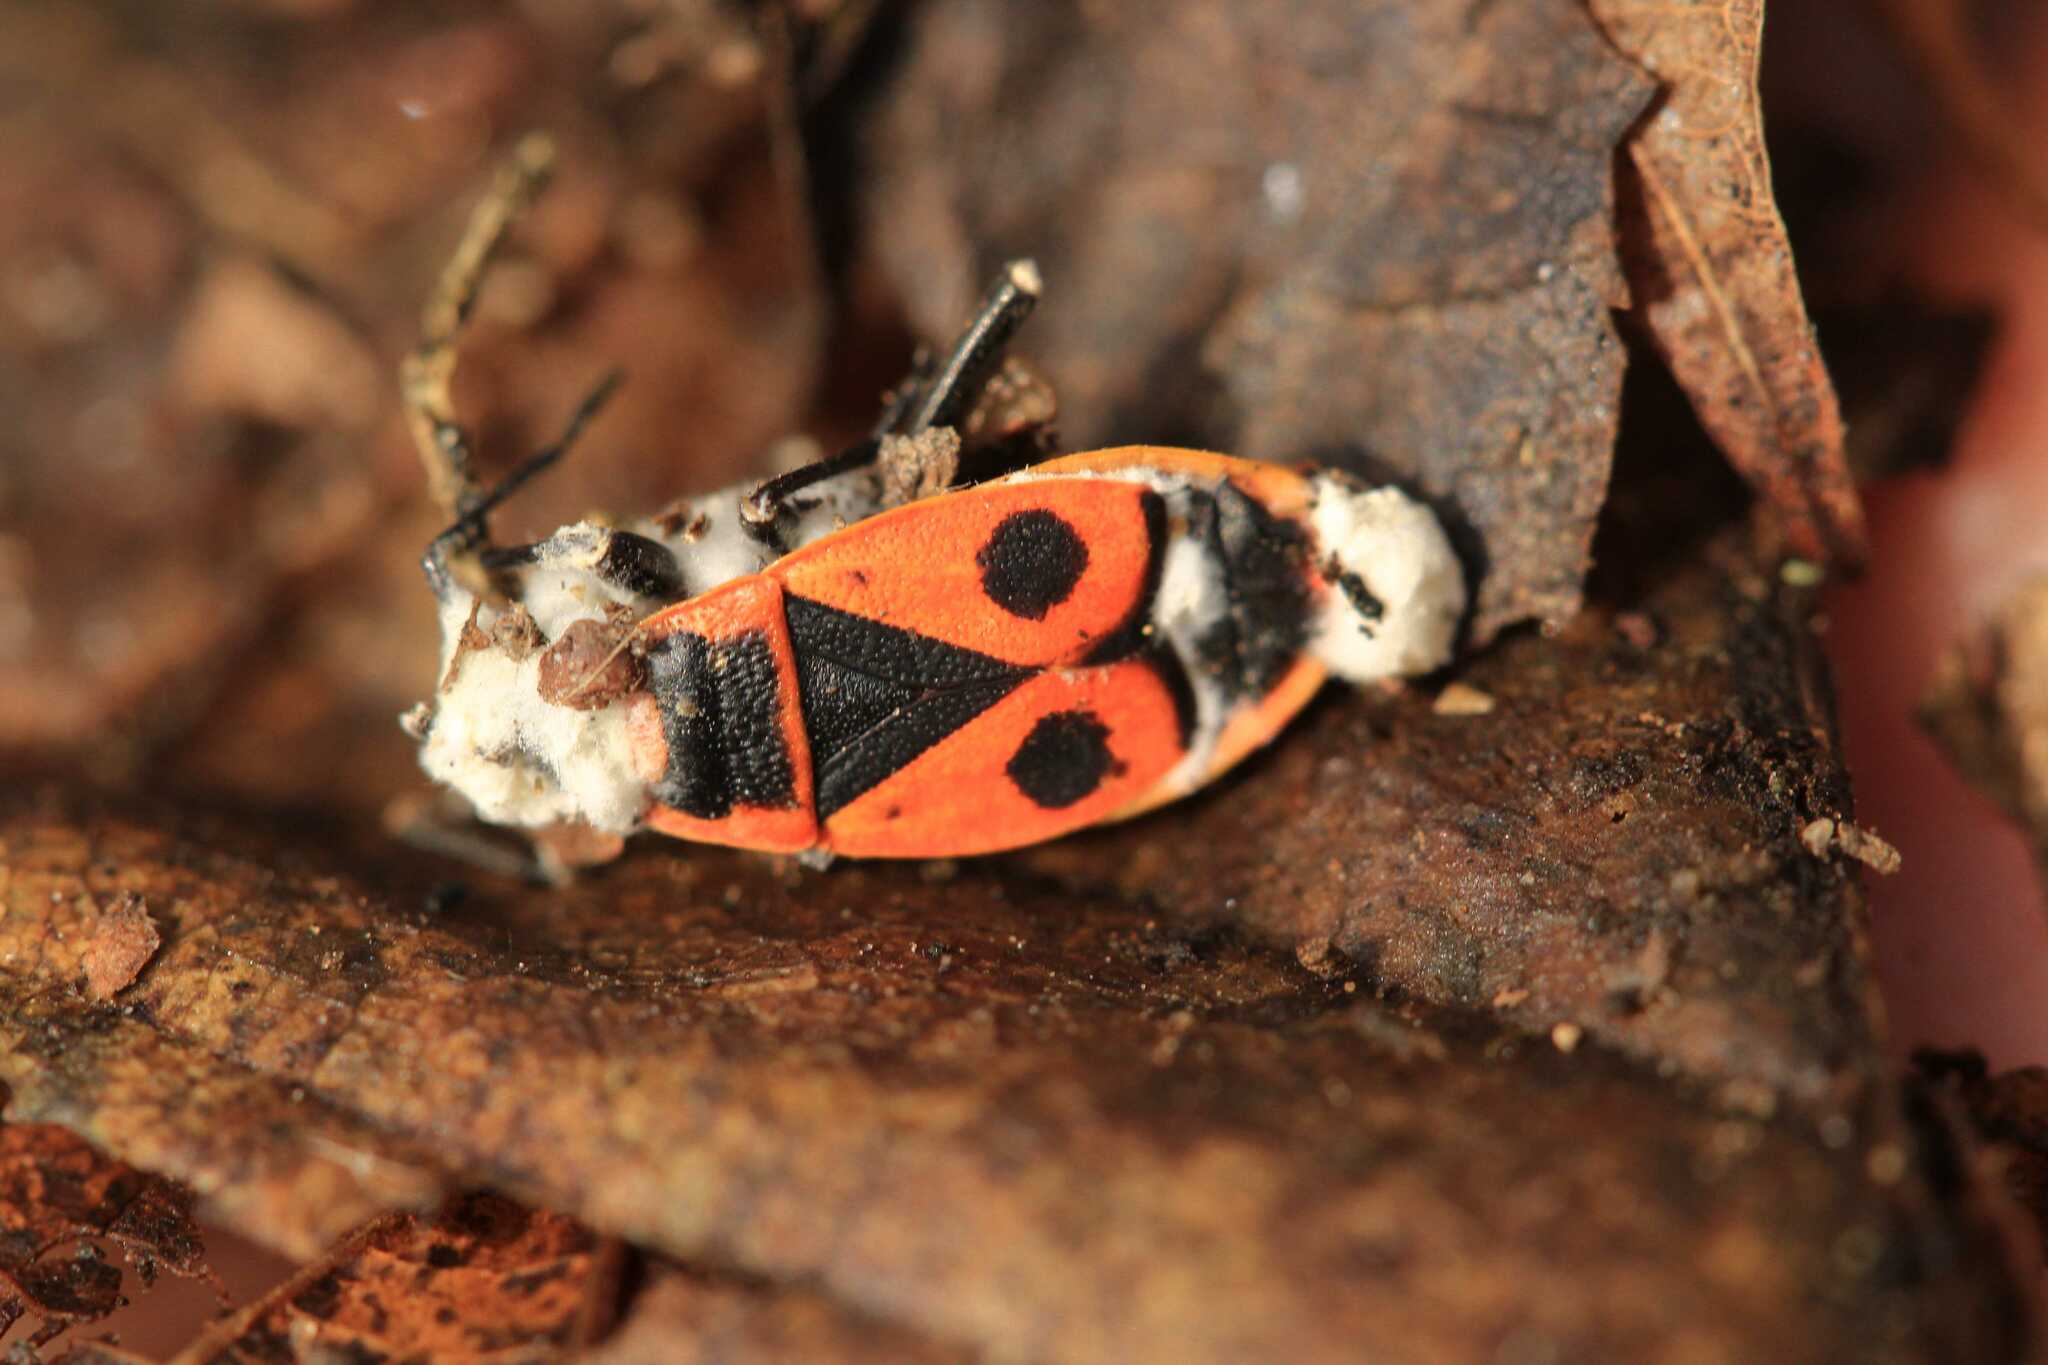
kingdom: Animalia
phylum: Arthropoda
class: Insecta
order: Hemiptera
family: Pyrrhocoridae
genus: Pyrrhocoris
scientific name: Pyrrhocoris apterus
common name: Firebug
